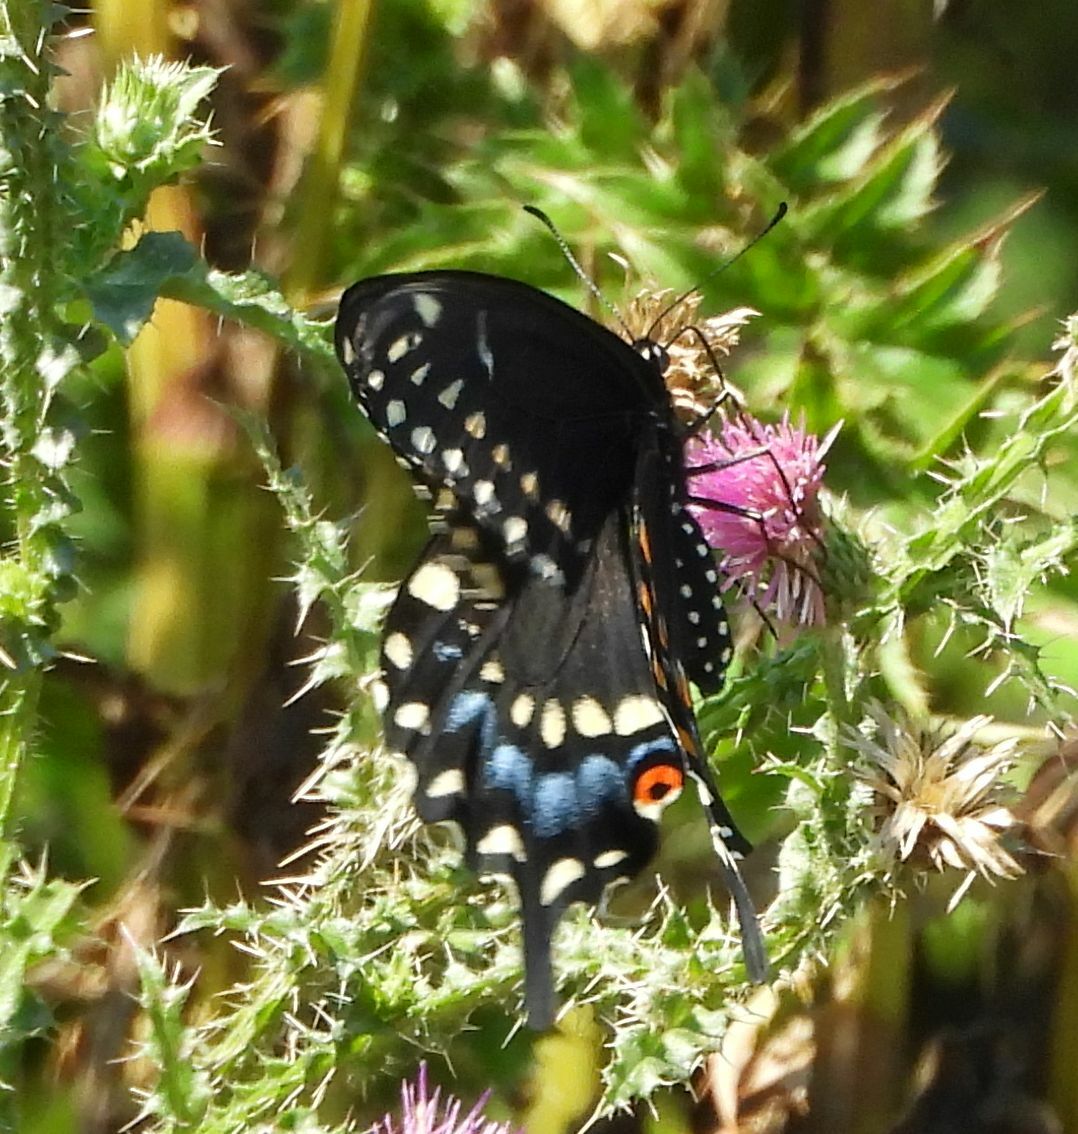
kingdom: Animalia
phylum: Arthropoda
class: Insecta
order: Lepidoptera
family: Papilionidae
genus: Papilio
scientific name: Papilio polyxenes
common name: Black swallowtail
